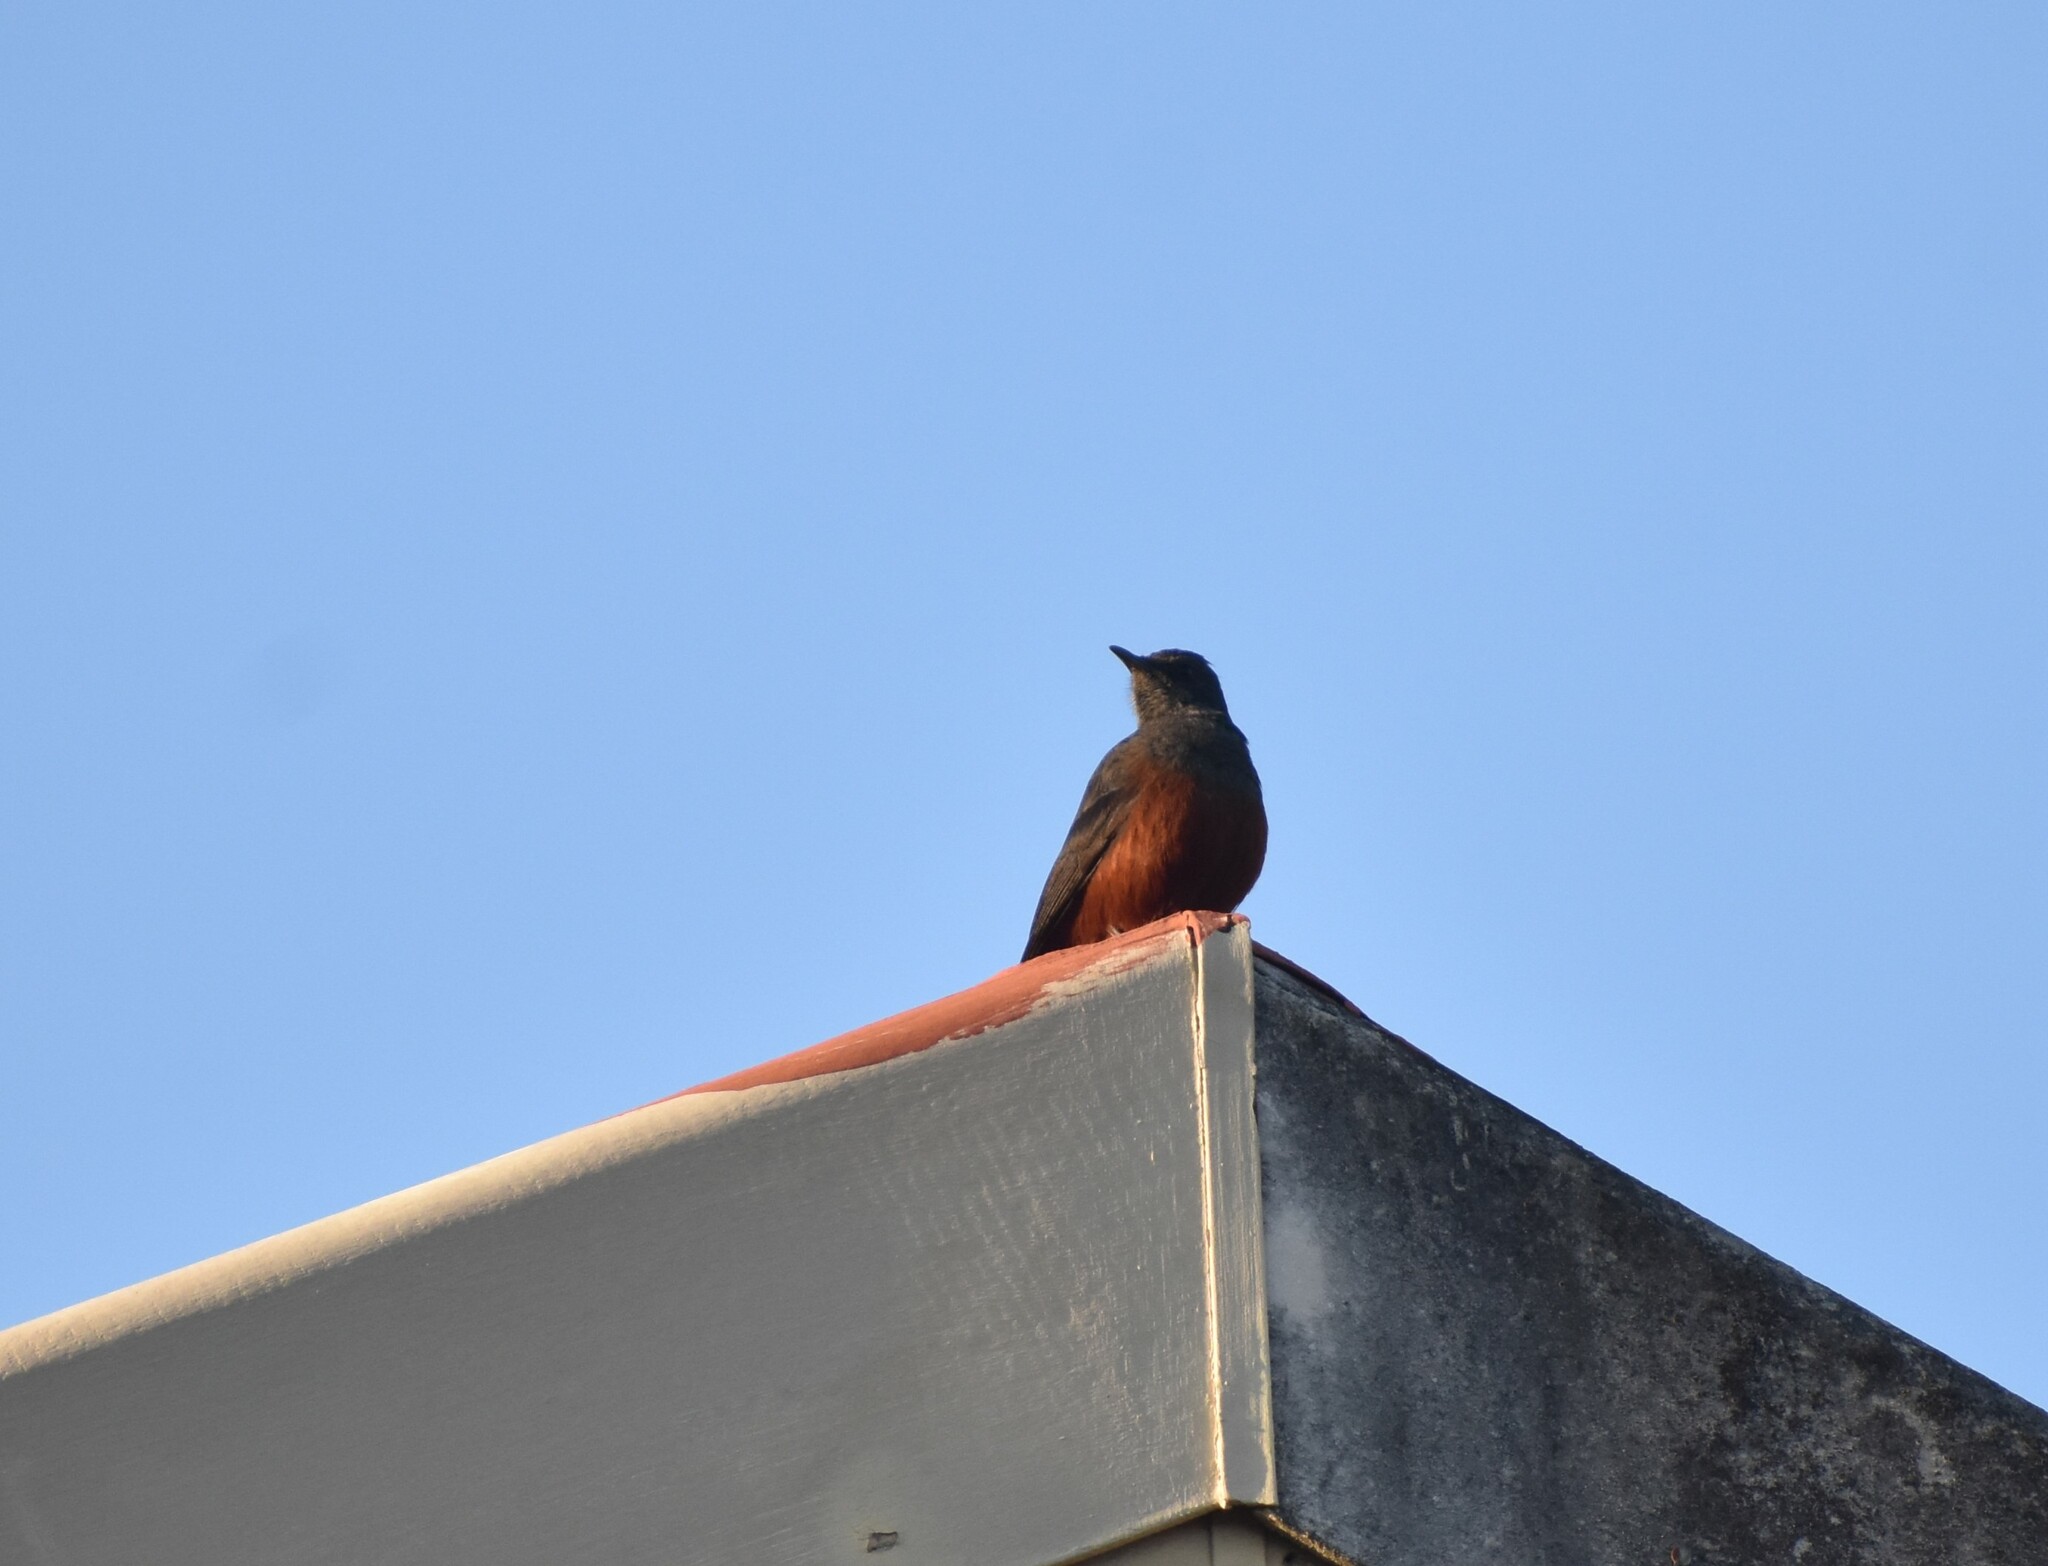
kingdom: Animalia
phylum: Chordata
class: Aves
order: Passeriformes
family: Muscicapidae
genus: Thamnolaea
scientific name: Thamnolaea cinnamomeiventris
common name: Mocking cliff chat
